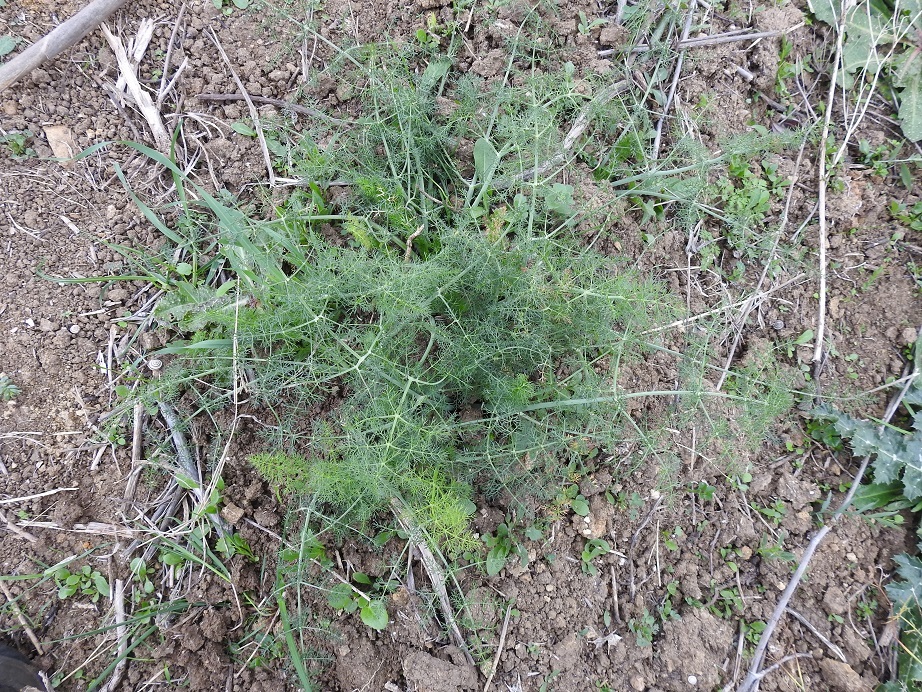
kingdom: Plantae
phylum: Tracheophyta
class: Magnoliopsida
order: Apiales
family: Apiaceae
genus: Foeniculum
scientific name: Foeniculum vulgare
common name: Fennel
